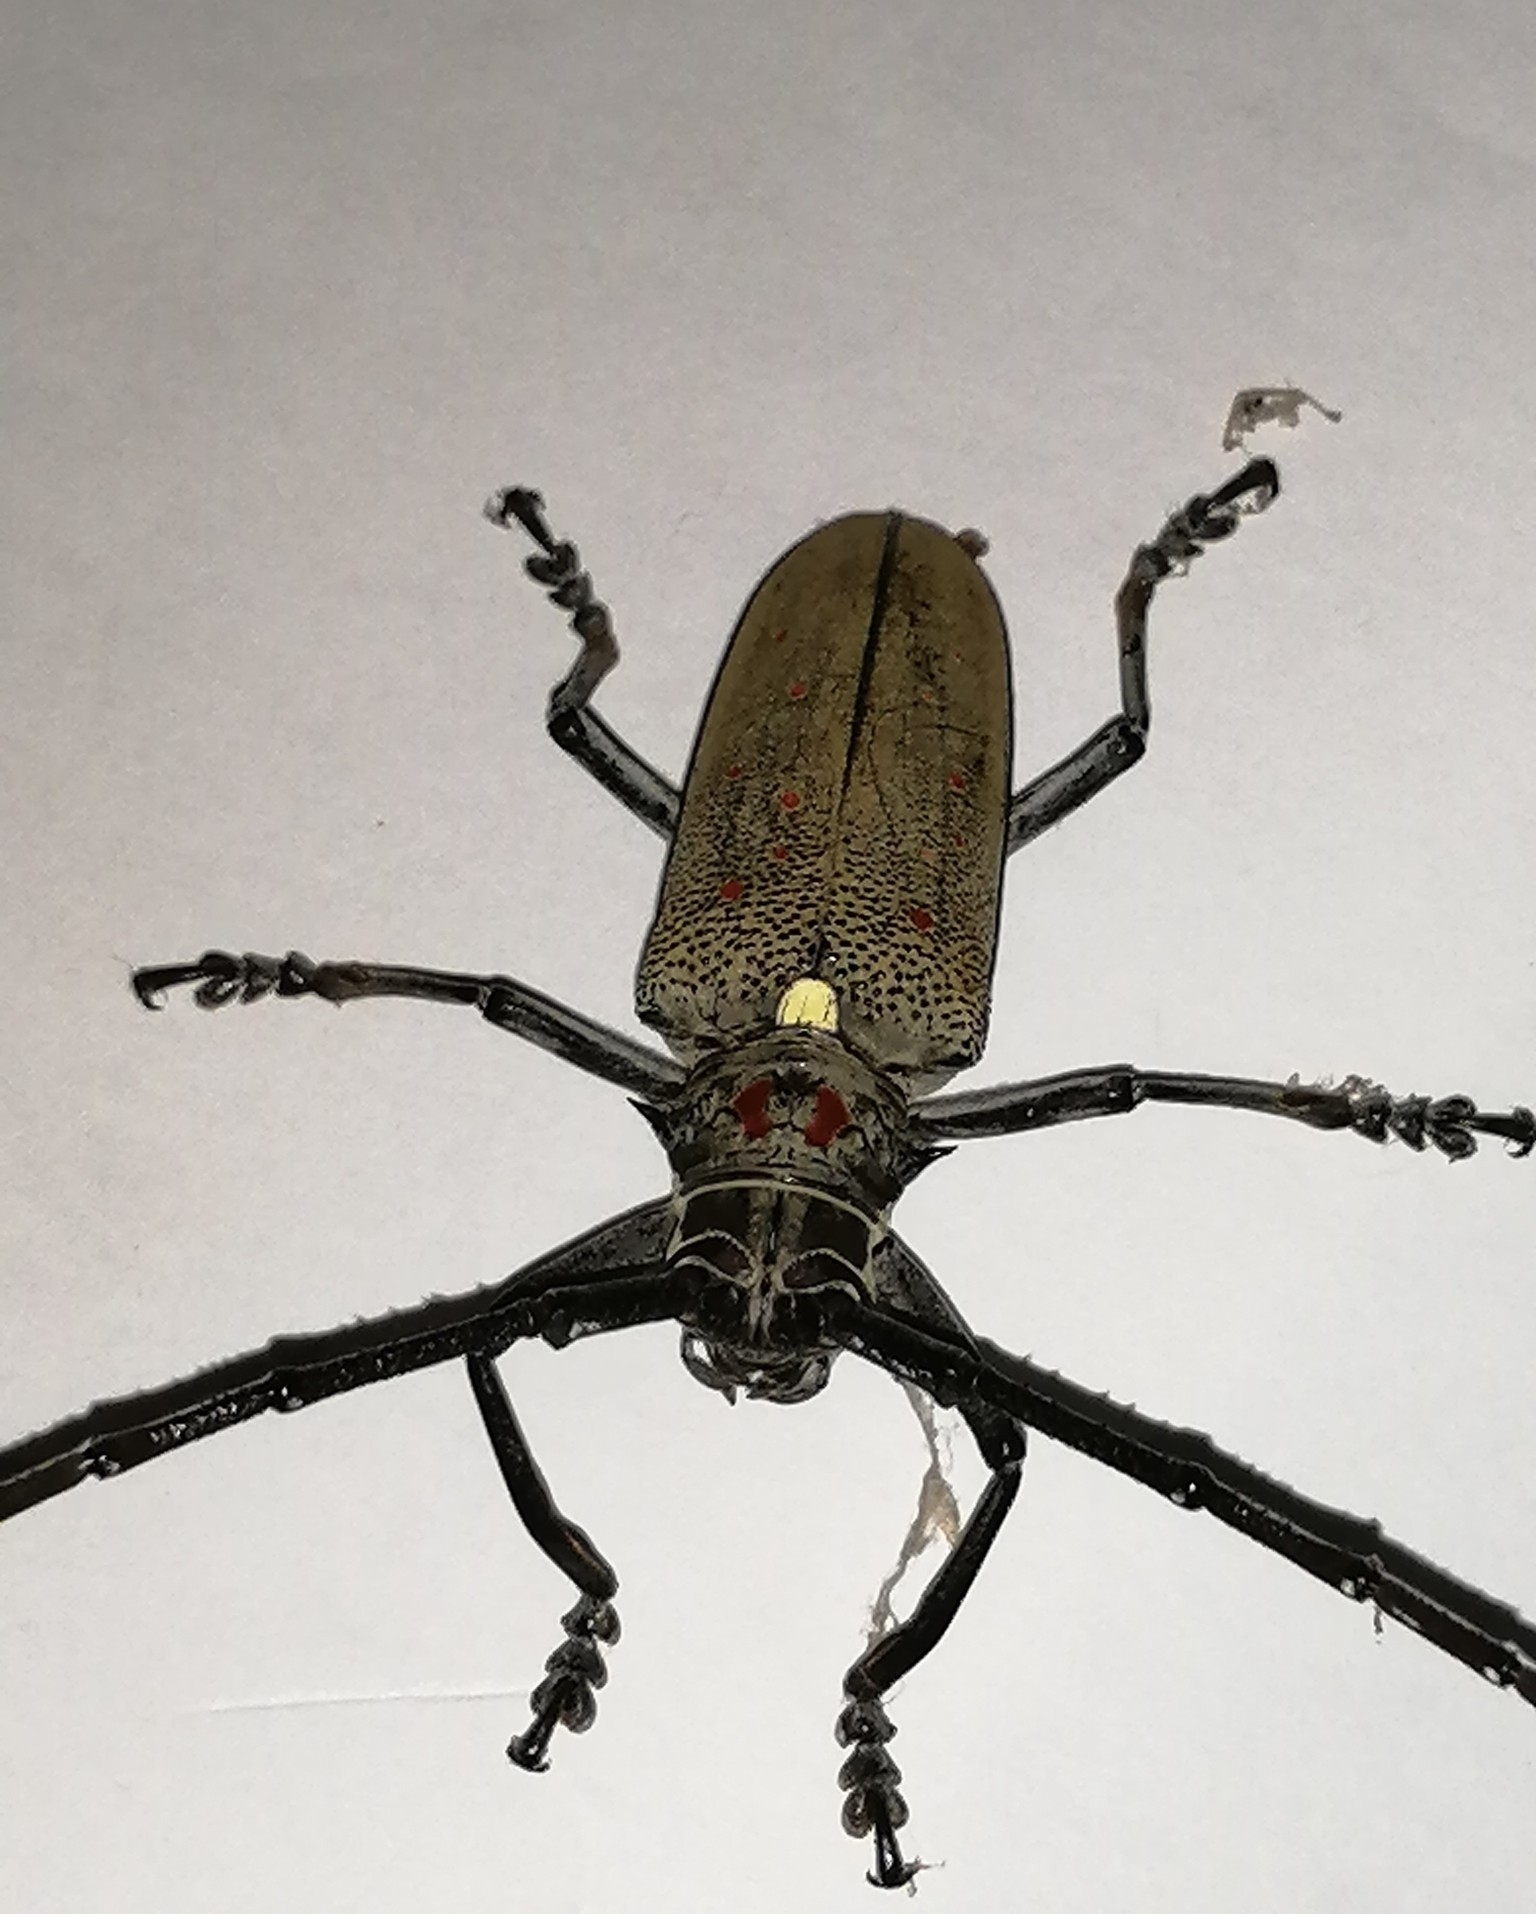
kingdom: Animalia
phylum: Arthropoda
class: Insecta
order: Coleoptera
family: Cerambycidae
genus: Batocera
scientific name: Batocera rufomaculata
